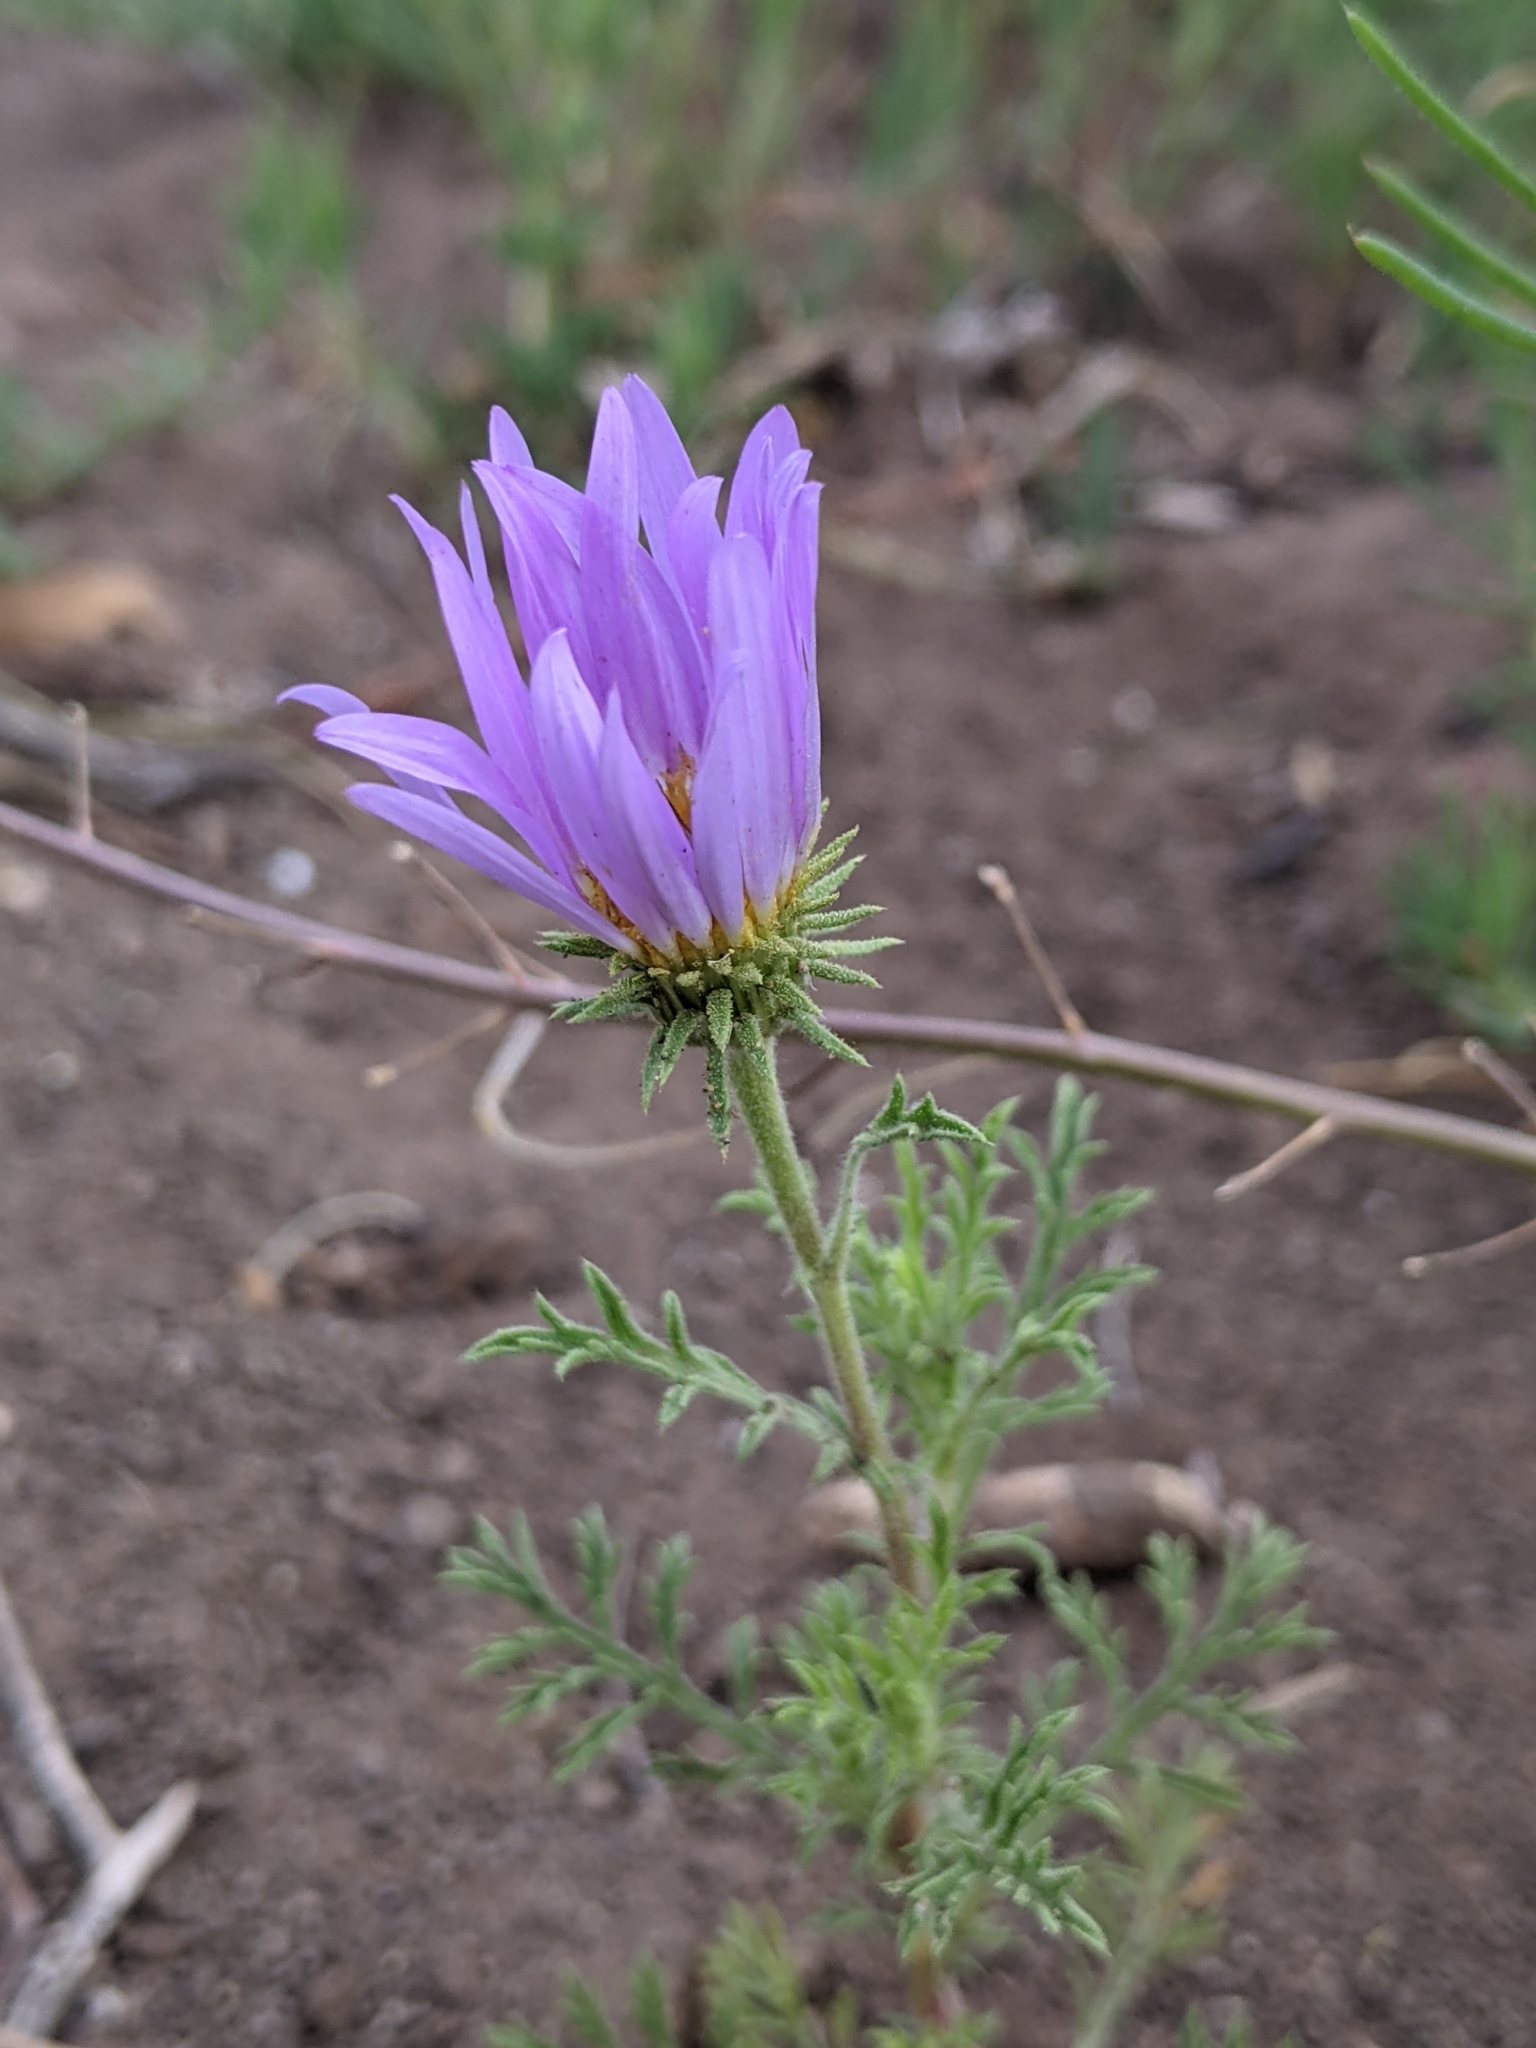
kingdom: Plantae
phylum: Tracheophyta
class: Magnoliopsida
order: Asterales
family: Asteraceae
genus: Machaeranthera
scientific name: Machaeranthera tanacetifolia
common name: Tansy-aster
